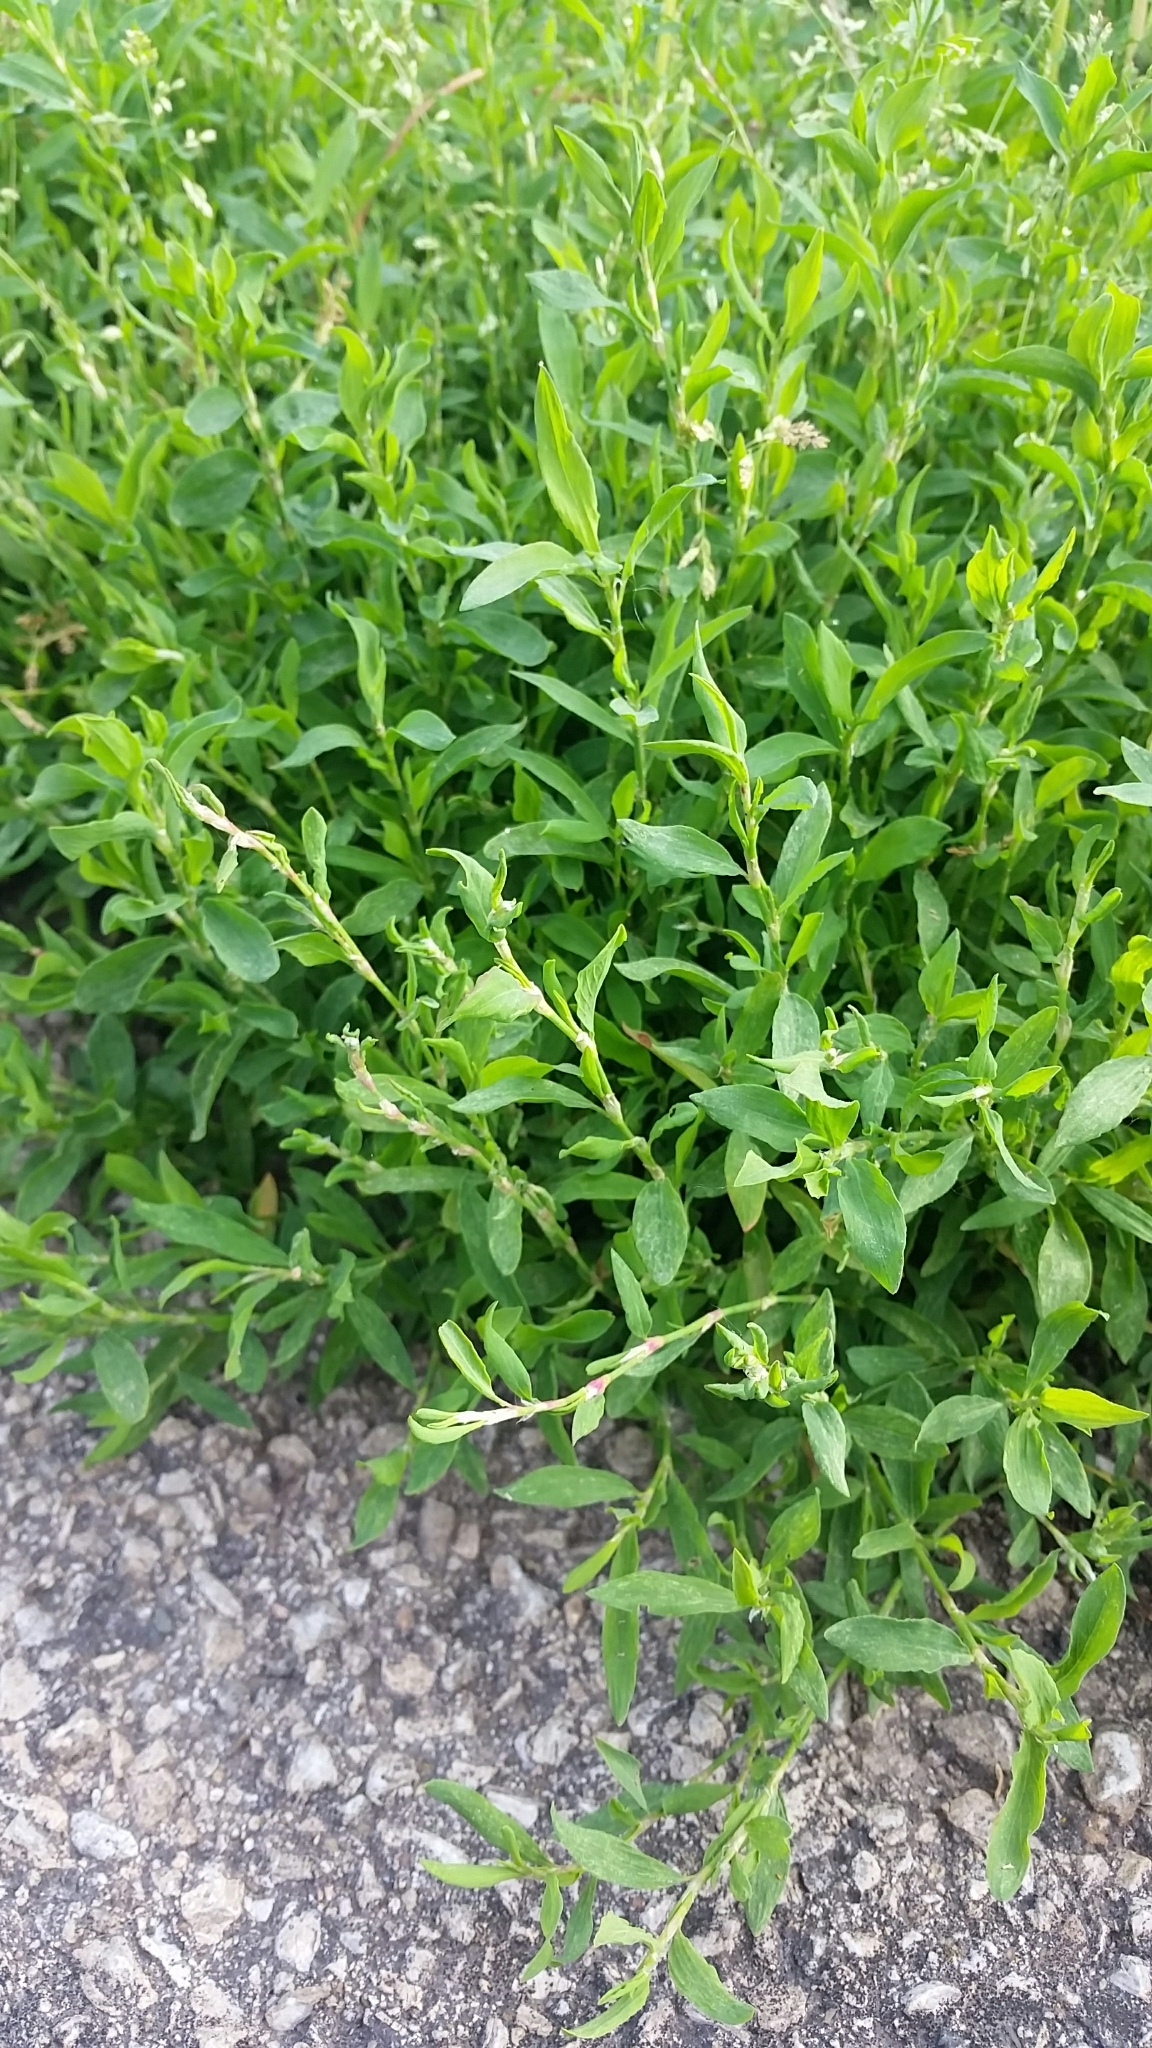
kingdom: Plantae
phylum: Tracheophyta
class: Magnoliopsida
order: Caryophyllales
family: Polygonaceae
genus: Polygonum
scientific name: Polygonum arenastrum
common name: Equal-leaved knotgrass
